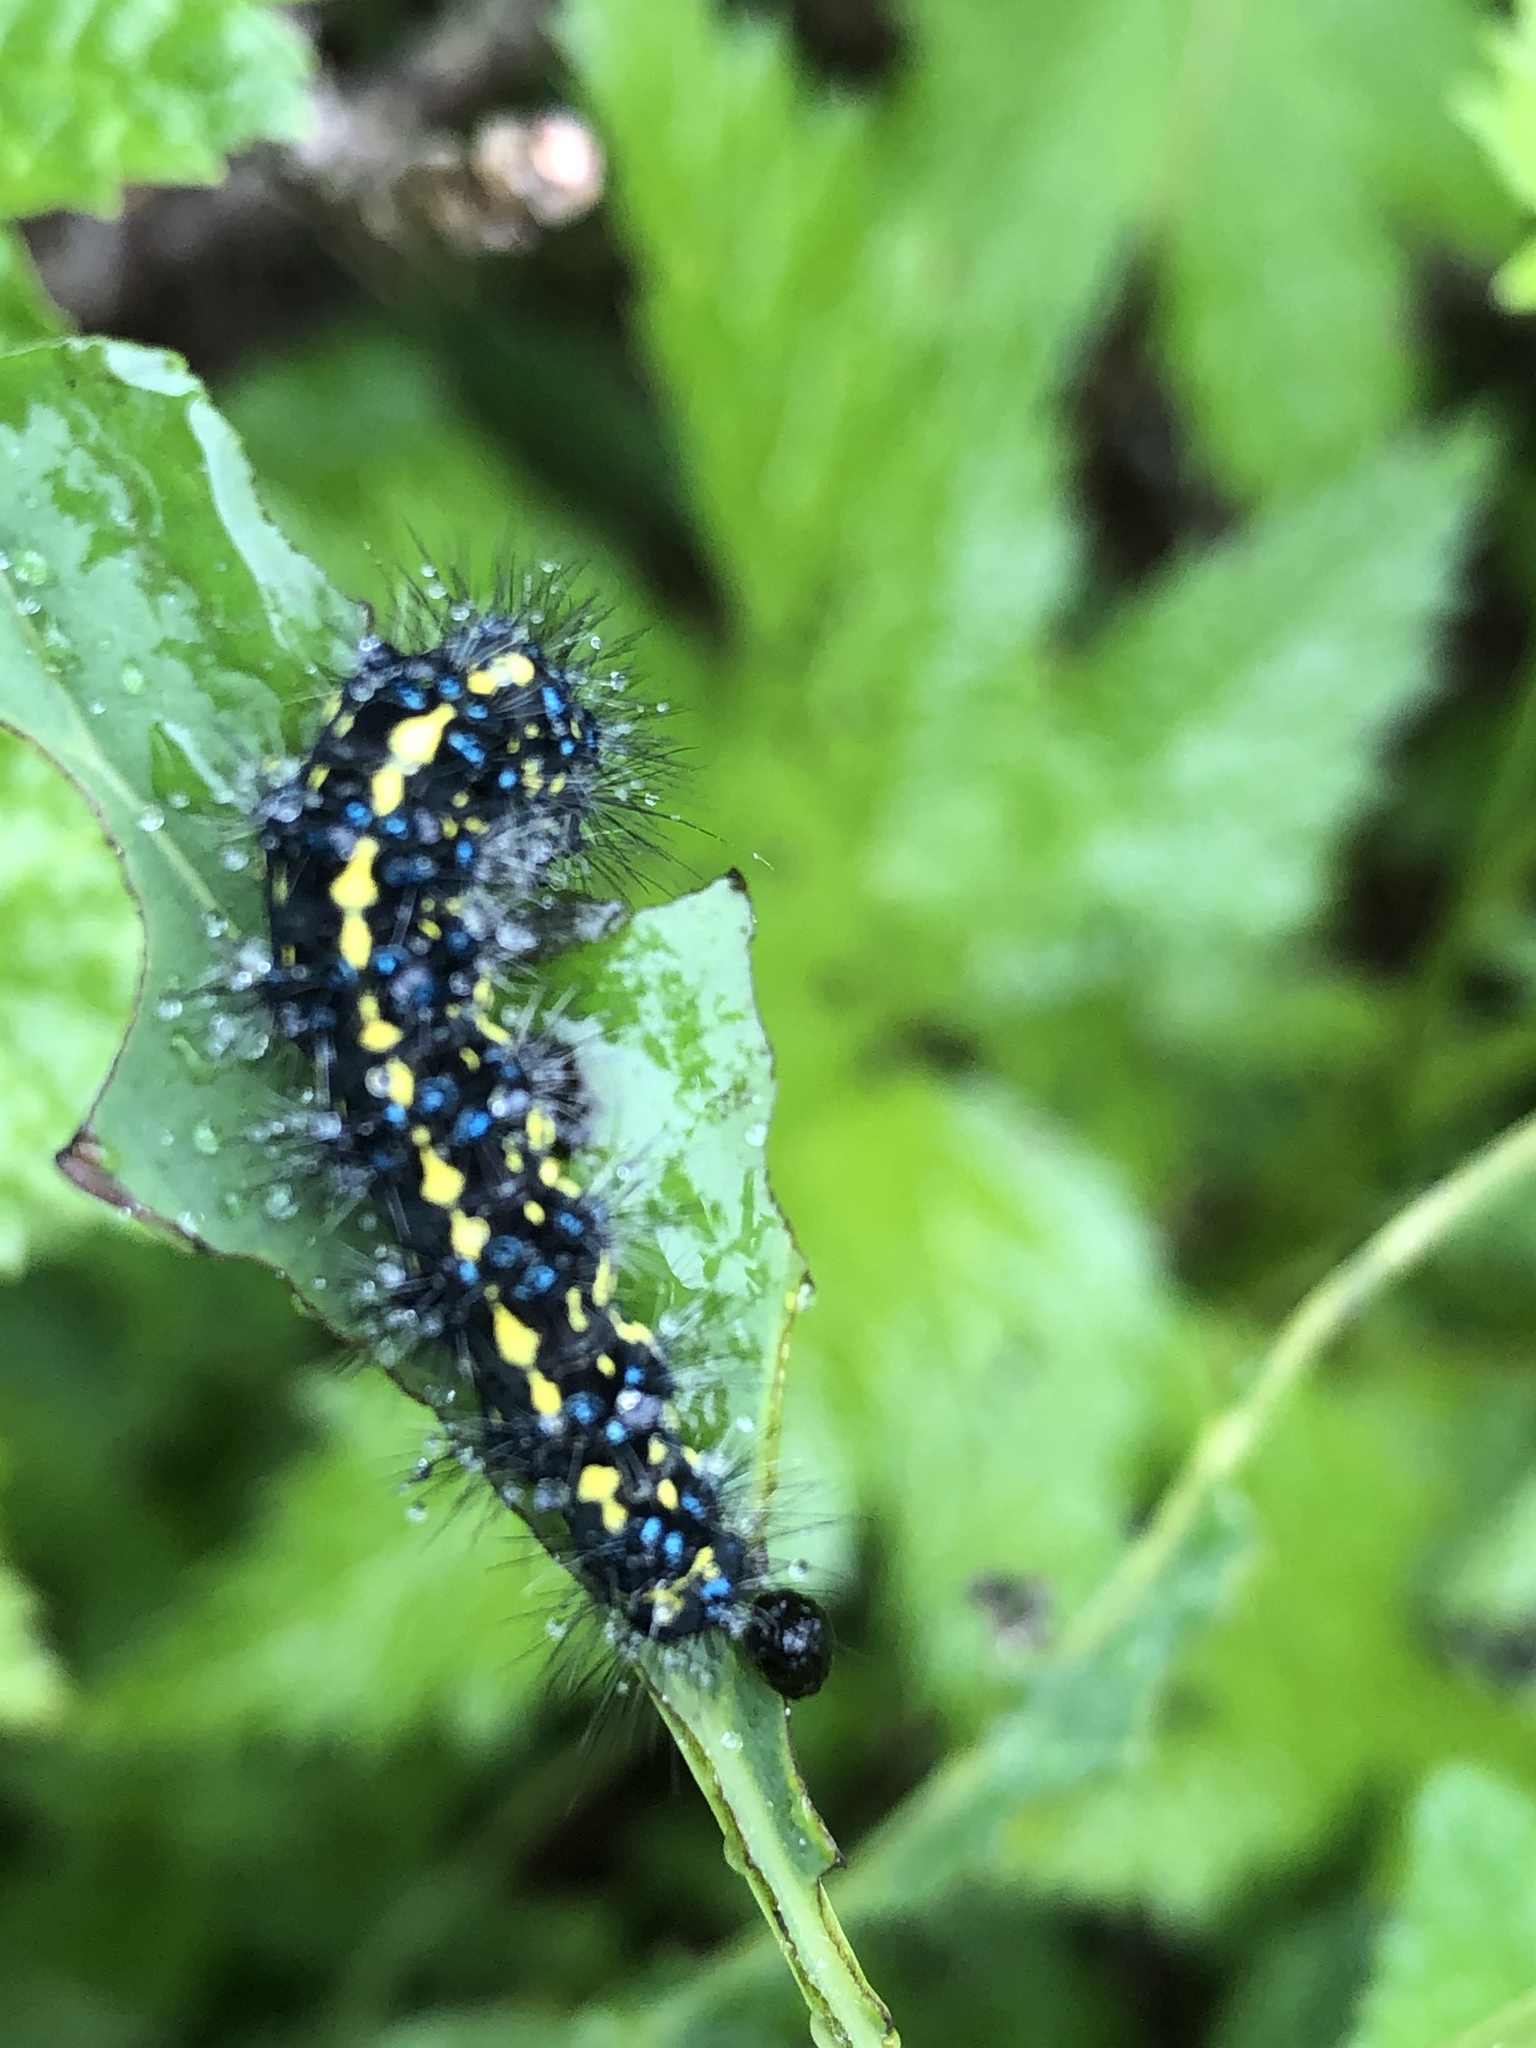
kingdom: Animalia
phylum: Arthropoda
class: Insecta
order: Lepidoptera
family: Erebidae
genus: Gnophaela
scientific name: Gnophaela vermiculata
